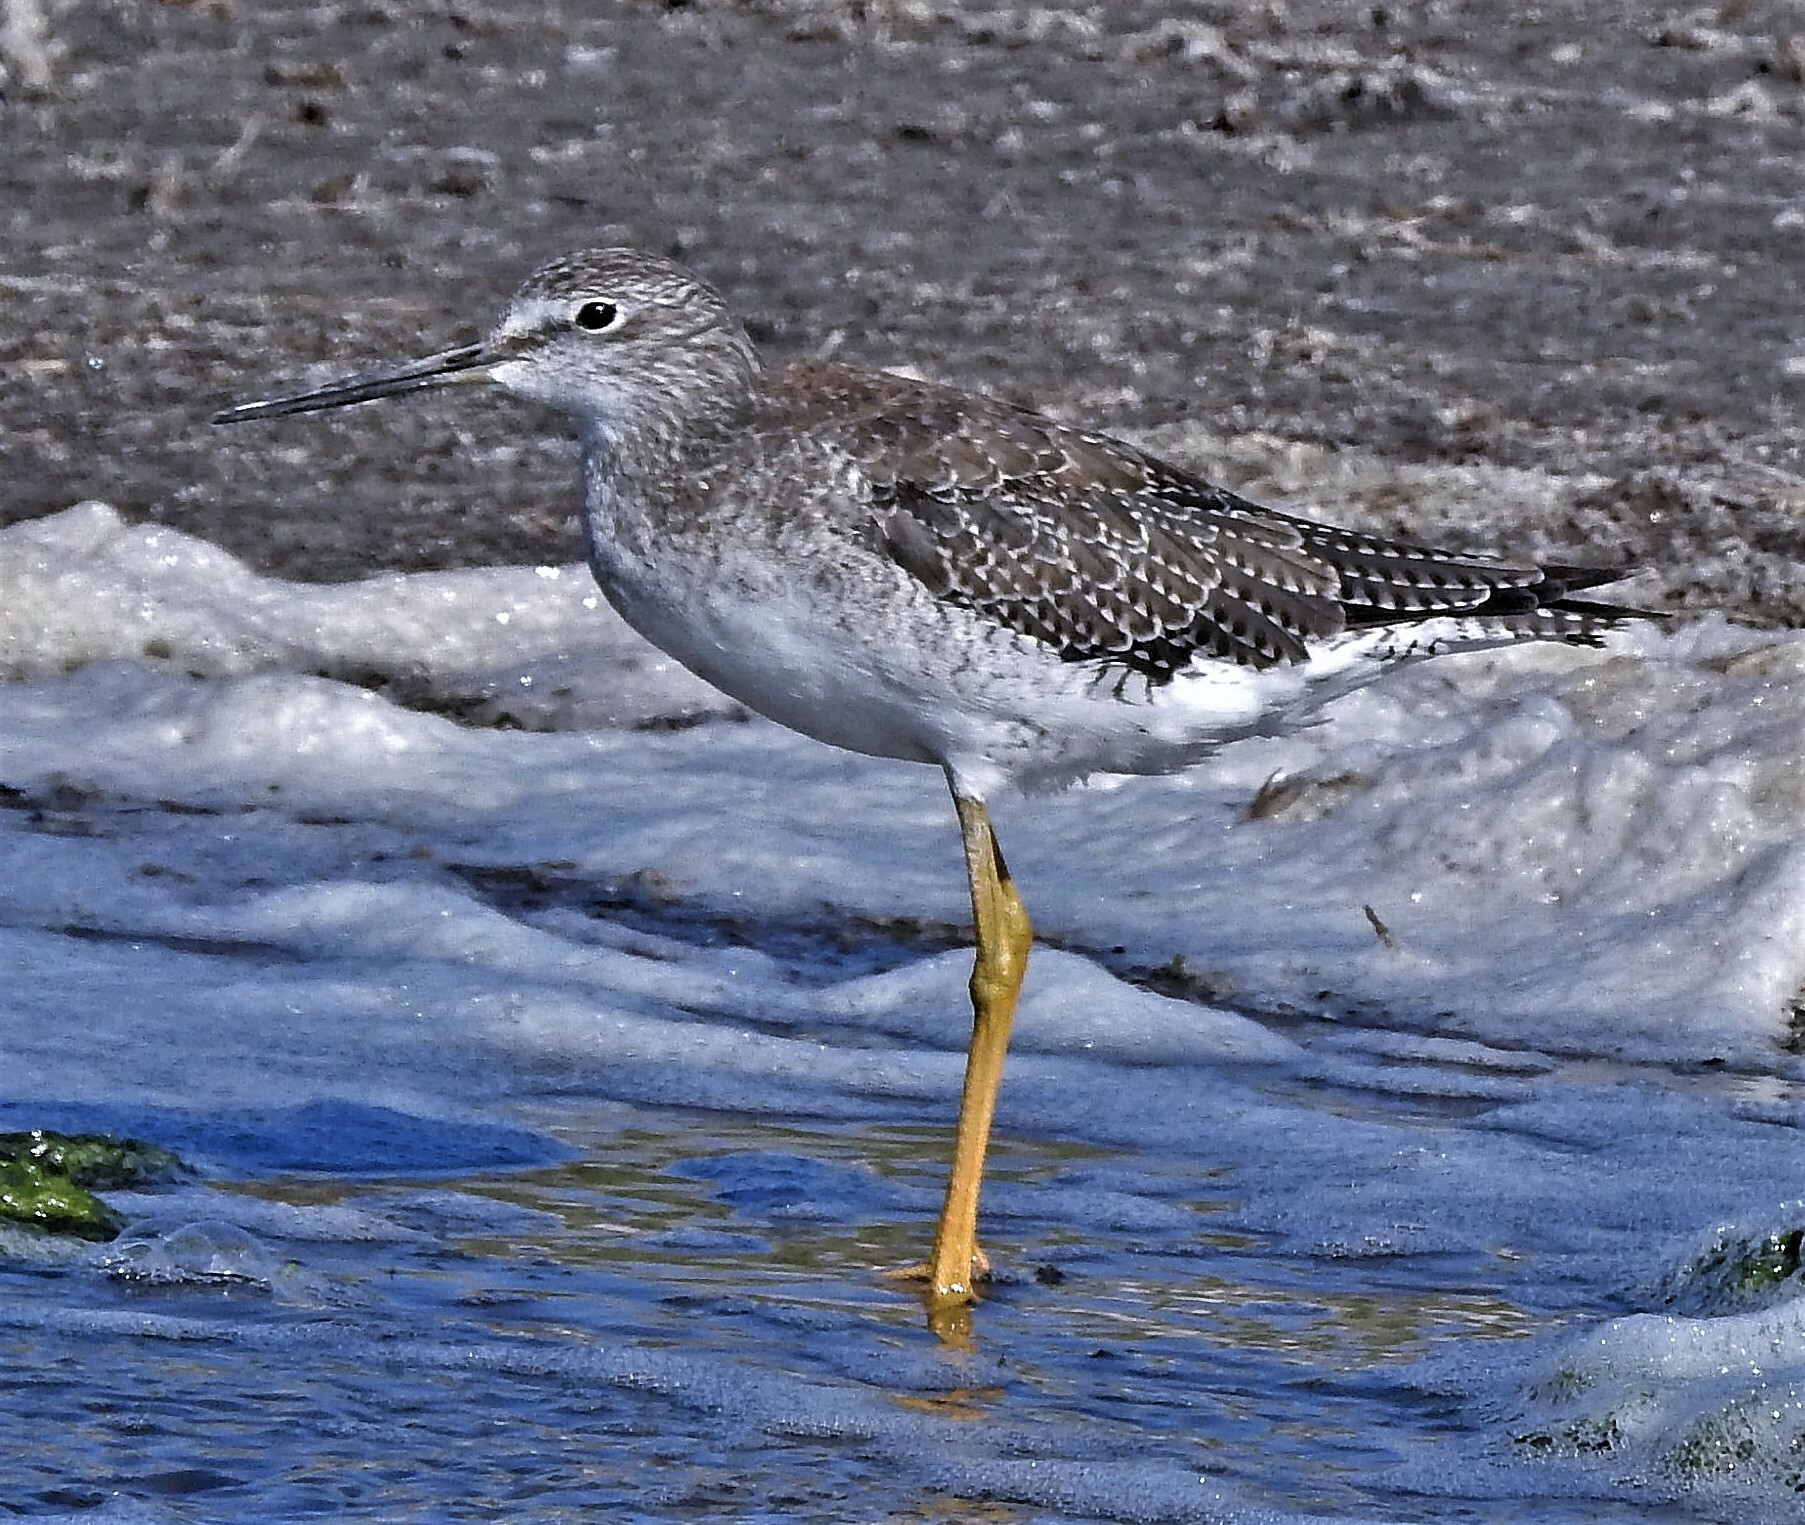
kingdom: Animalia
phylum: Chordata
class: Aves
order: Charadriiformes
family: Scolopacidae
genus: Tringa
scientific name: Tringa melanoleuca
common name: Greater yellowlegs
